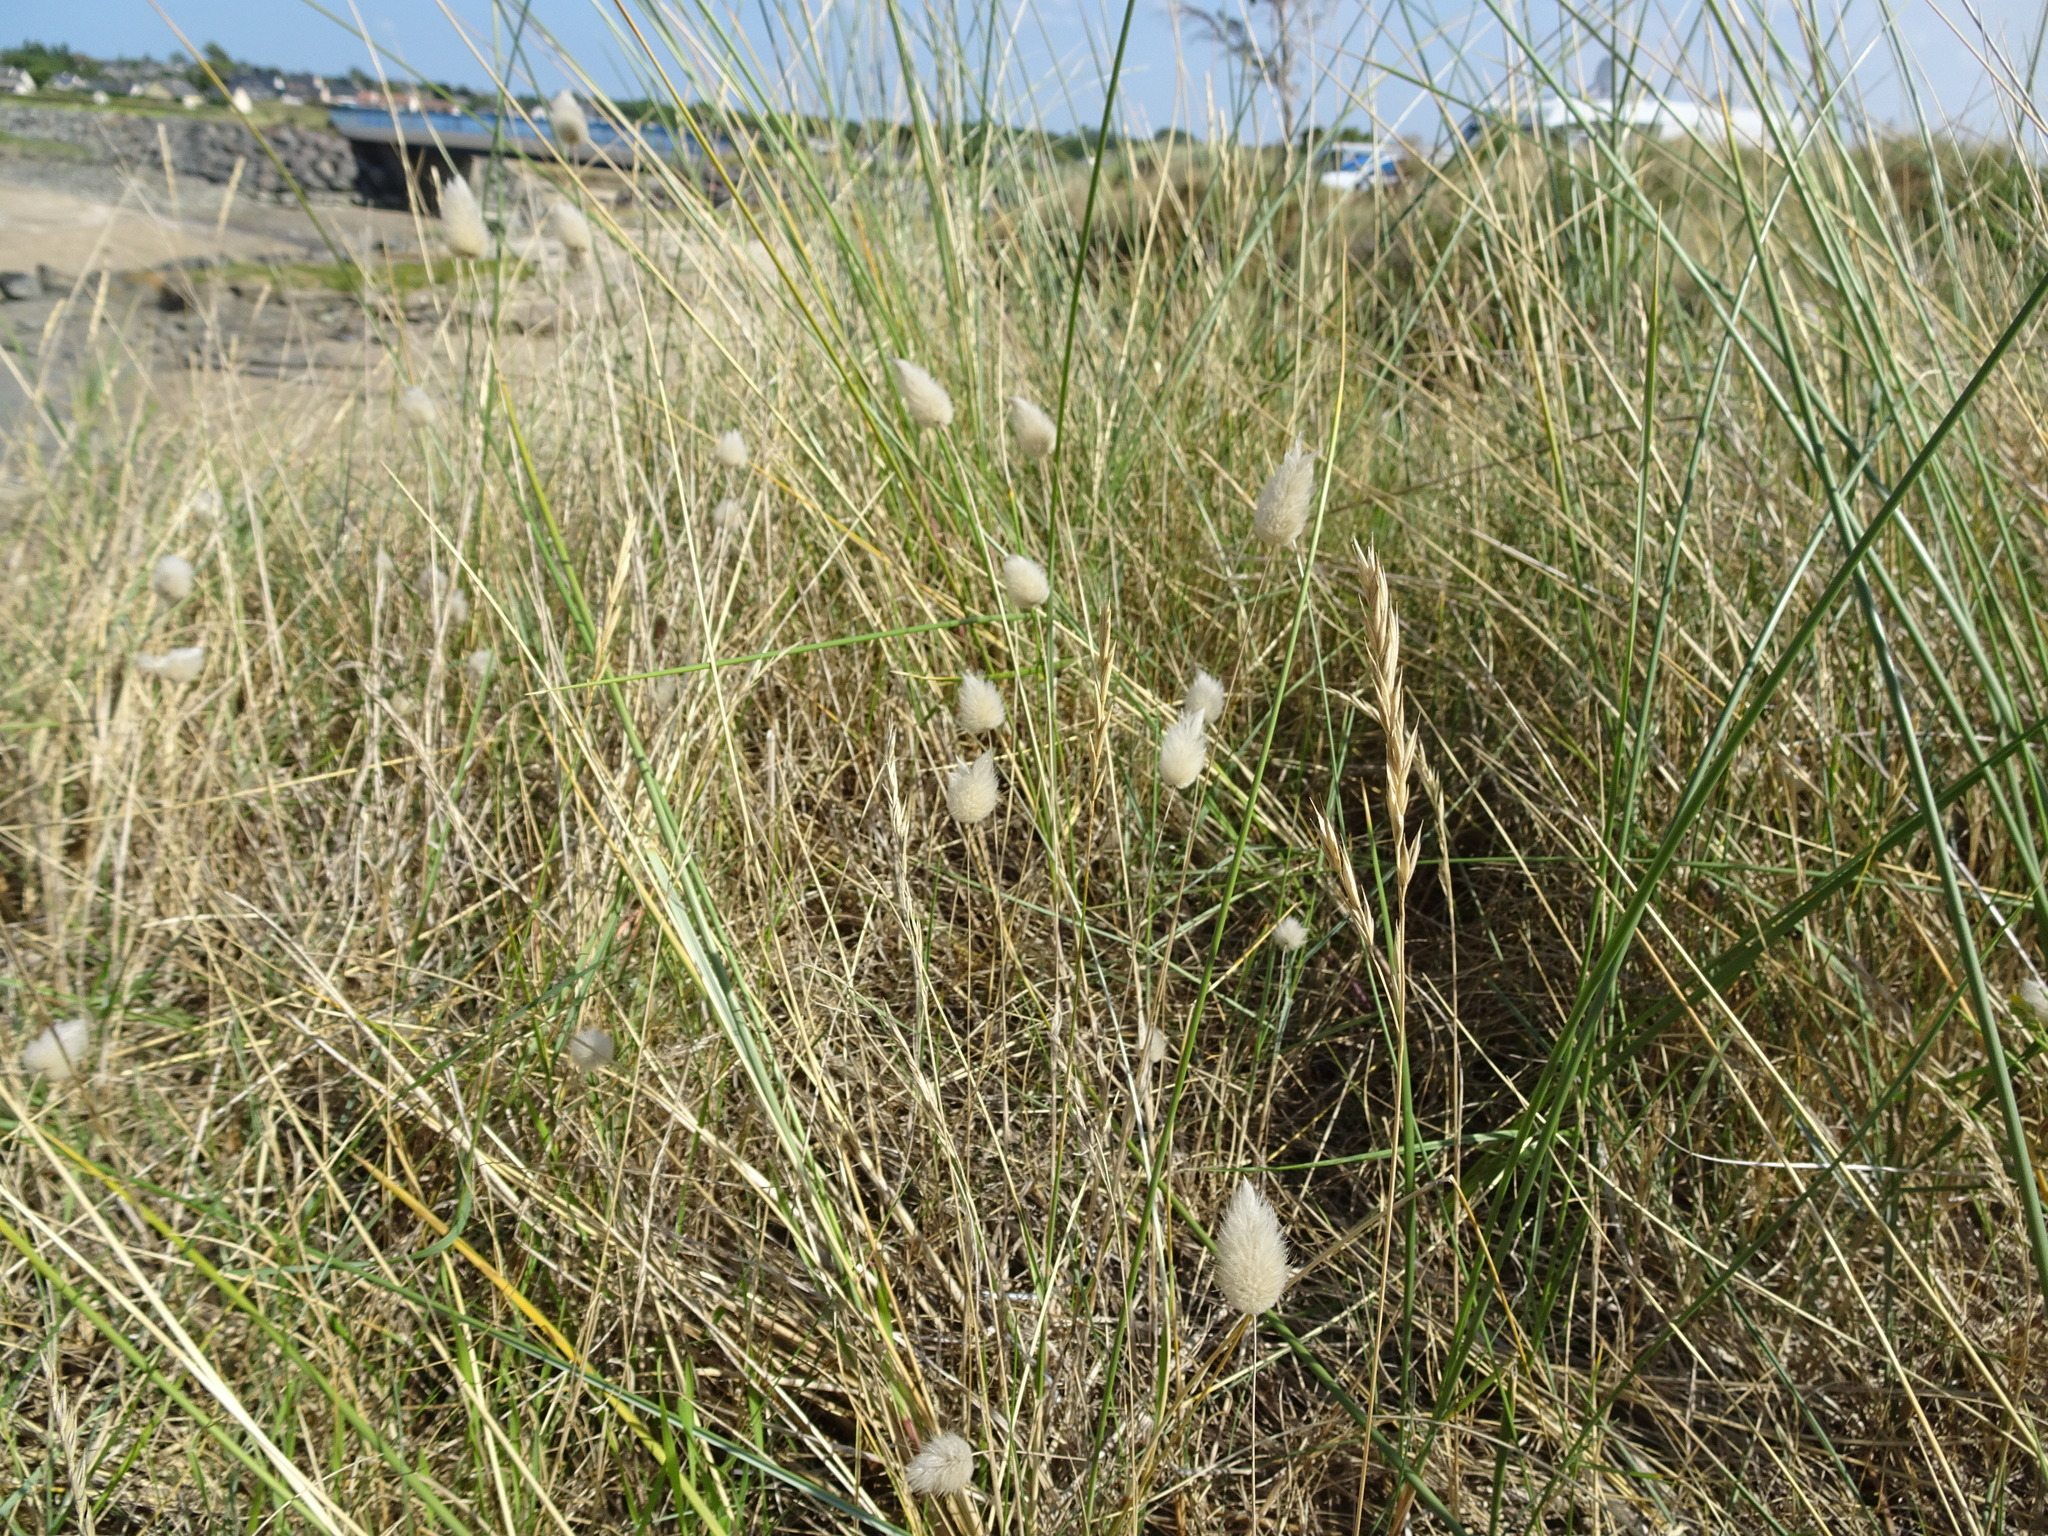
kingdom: Plantae
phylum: Tracheophyta
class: Liliopsida
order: Poales
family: Poaceae
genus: Lagurus
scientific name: Lagurus ovatus
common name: Hare's-tail
